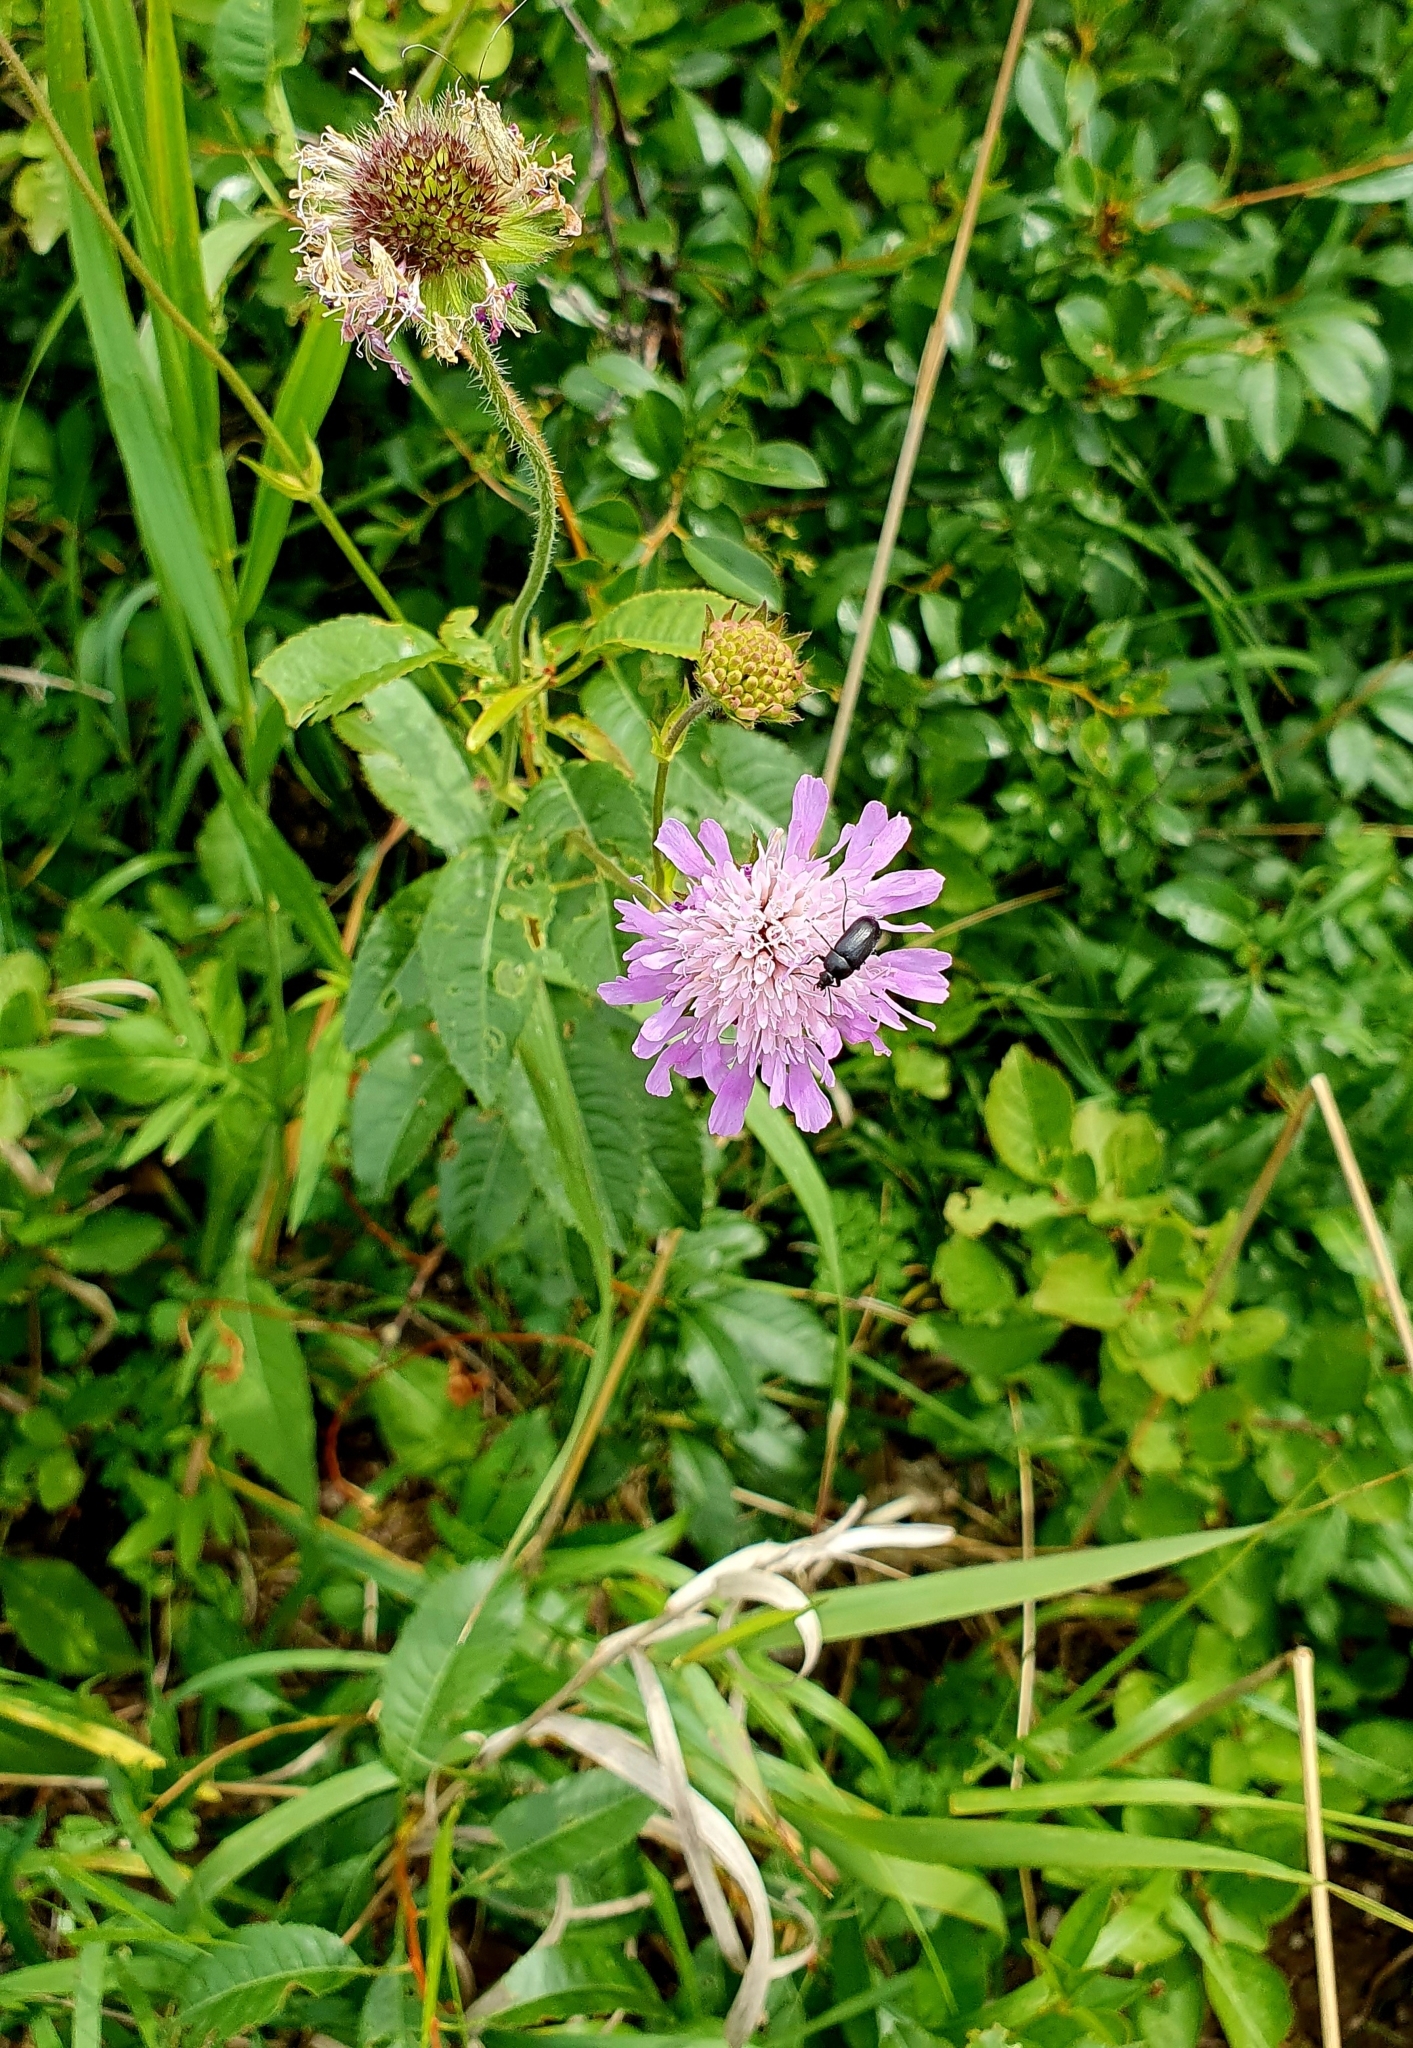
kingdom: Plantae
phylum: Tracheophyta
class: Magnoliopsida
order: Dipsacales
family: Caprifoliaceae
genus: Knautia
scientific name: Knautia arvensis
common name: Field scabiosa
